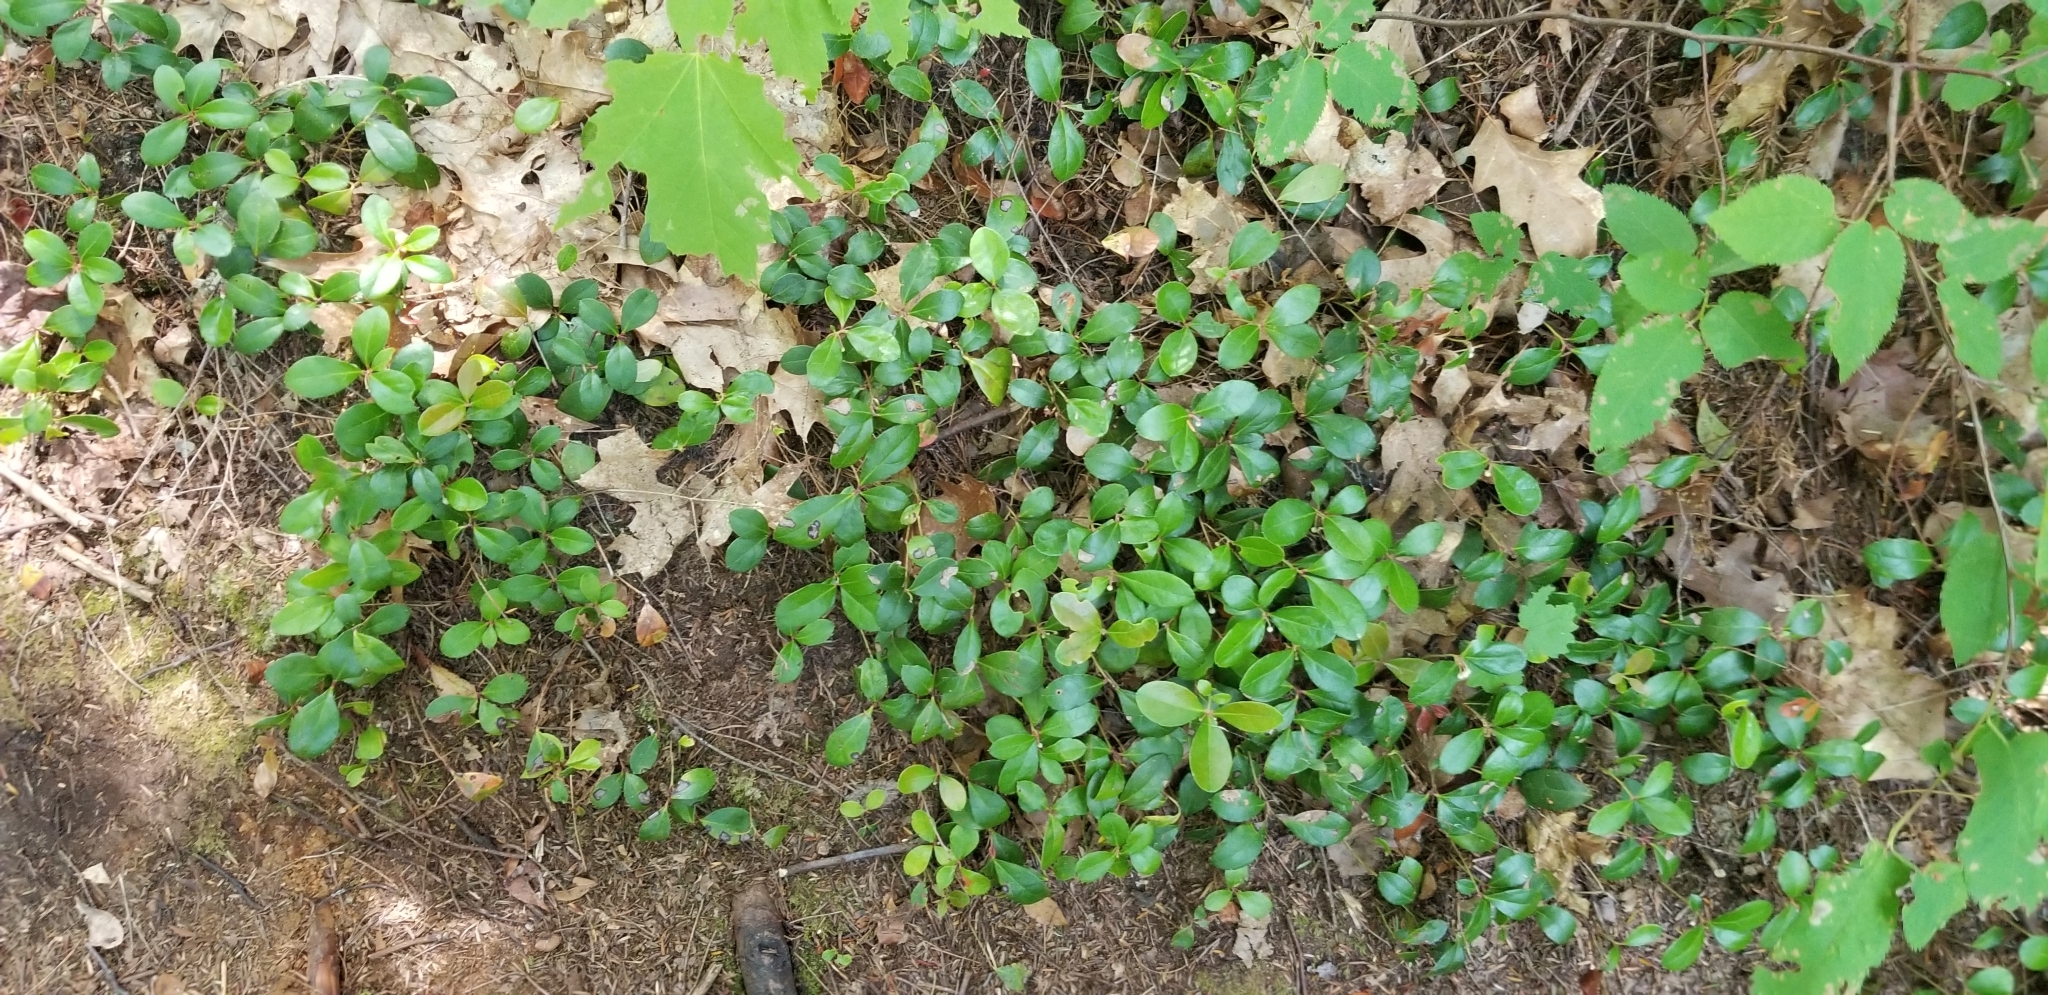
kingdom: Plantae
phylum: Tracheophyta
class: Magnoliopsida
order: Ericales
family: Ericaceae
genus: Gaultheria
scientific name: Gaultheria procumbens
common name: Checkerberry
